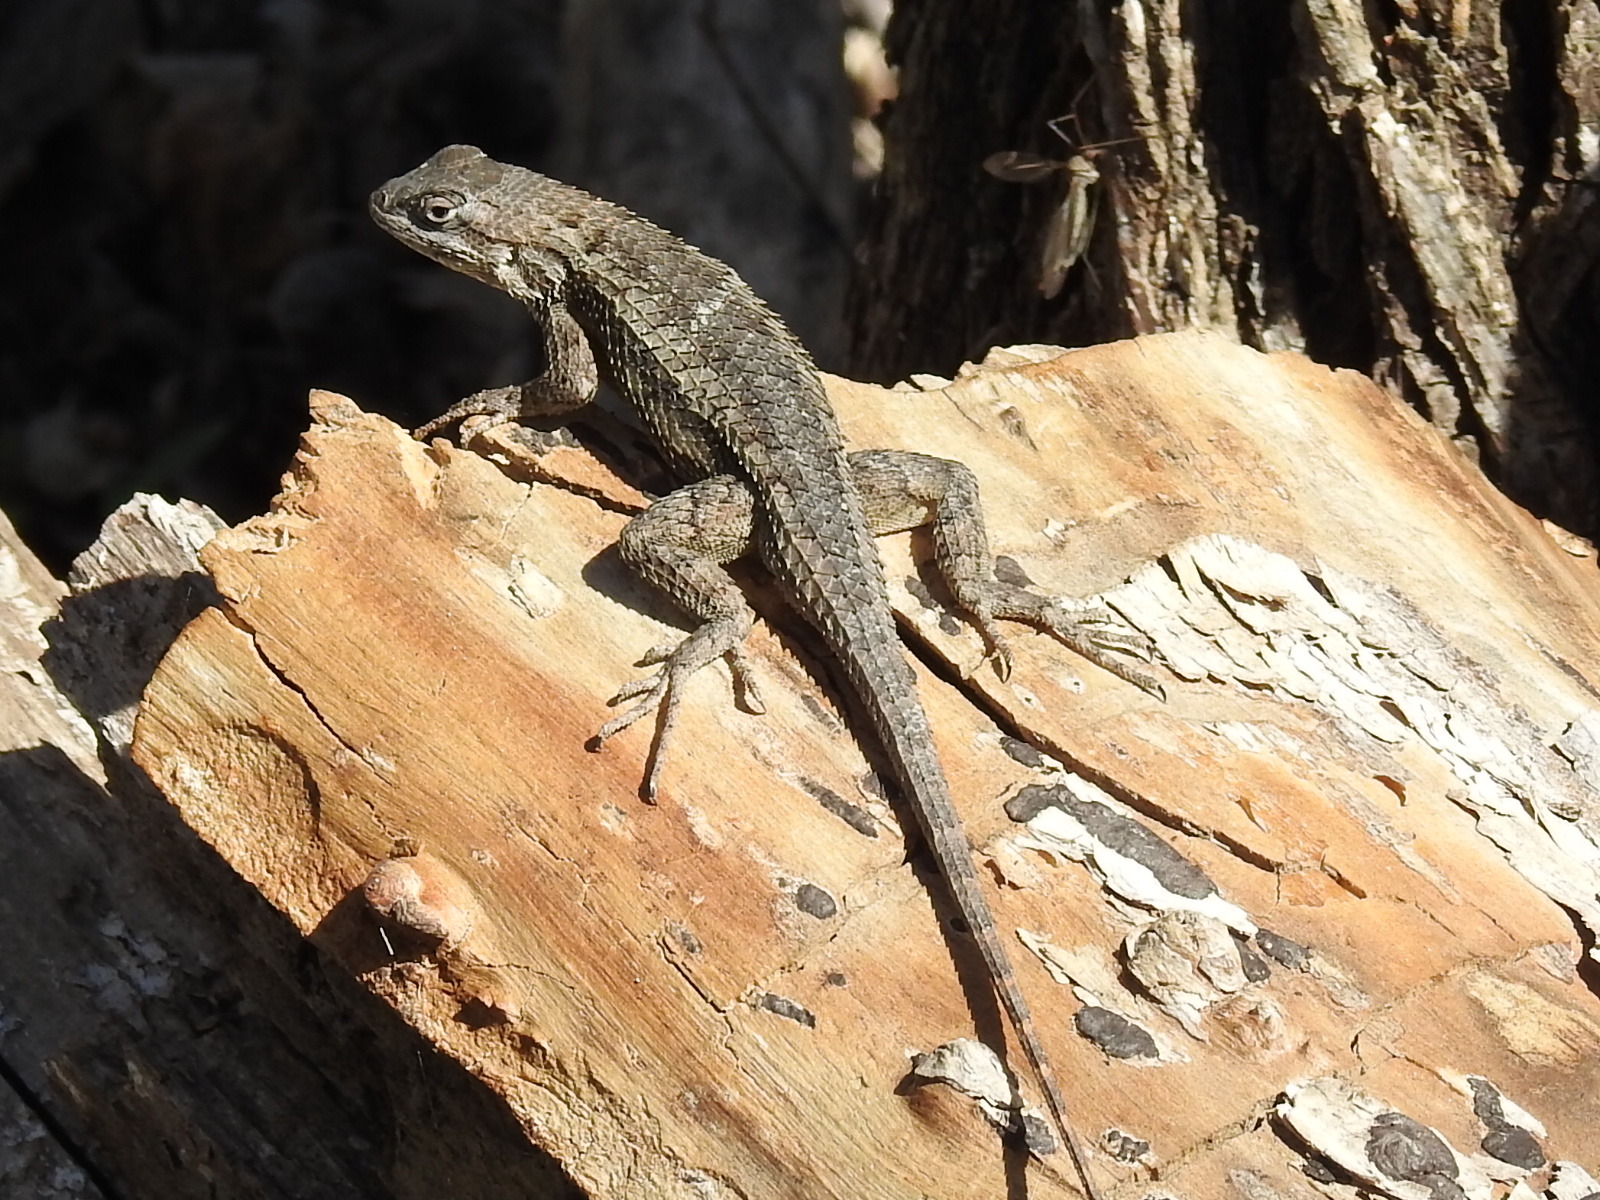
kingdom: Animalia
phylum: Chordata
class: Squamata
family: Phrynosomatidae
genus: Sceloporus
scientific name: Sceloporus olivaceus
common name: Texas spiny lizard
